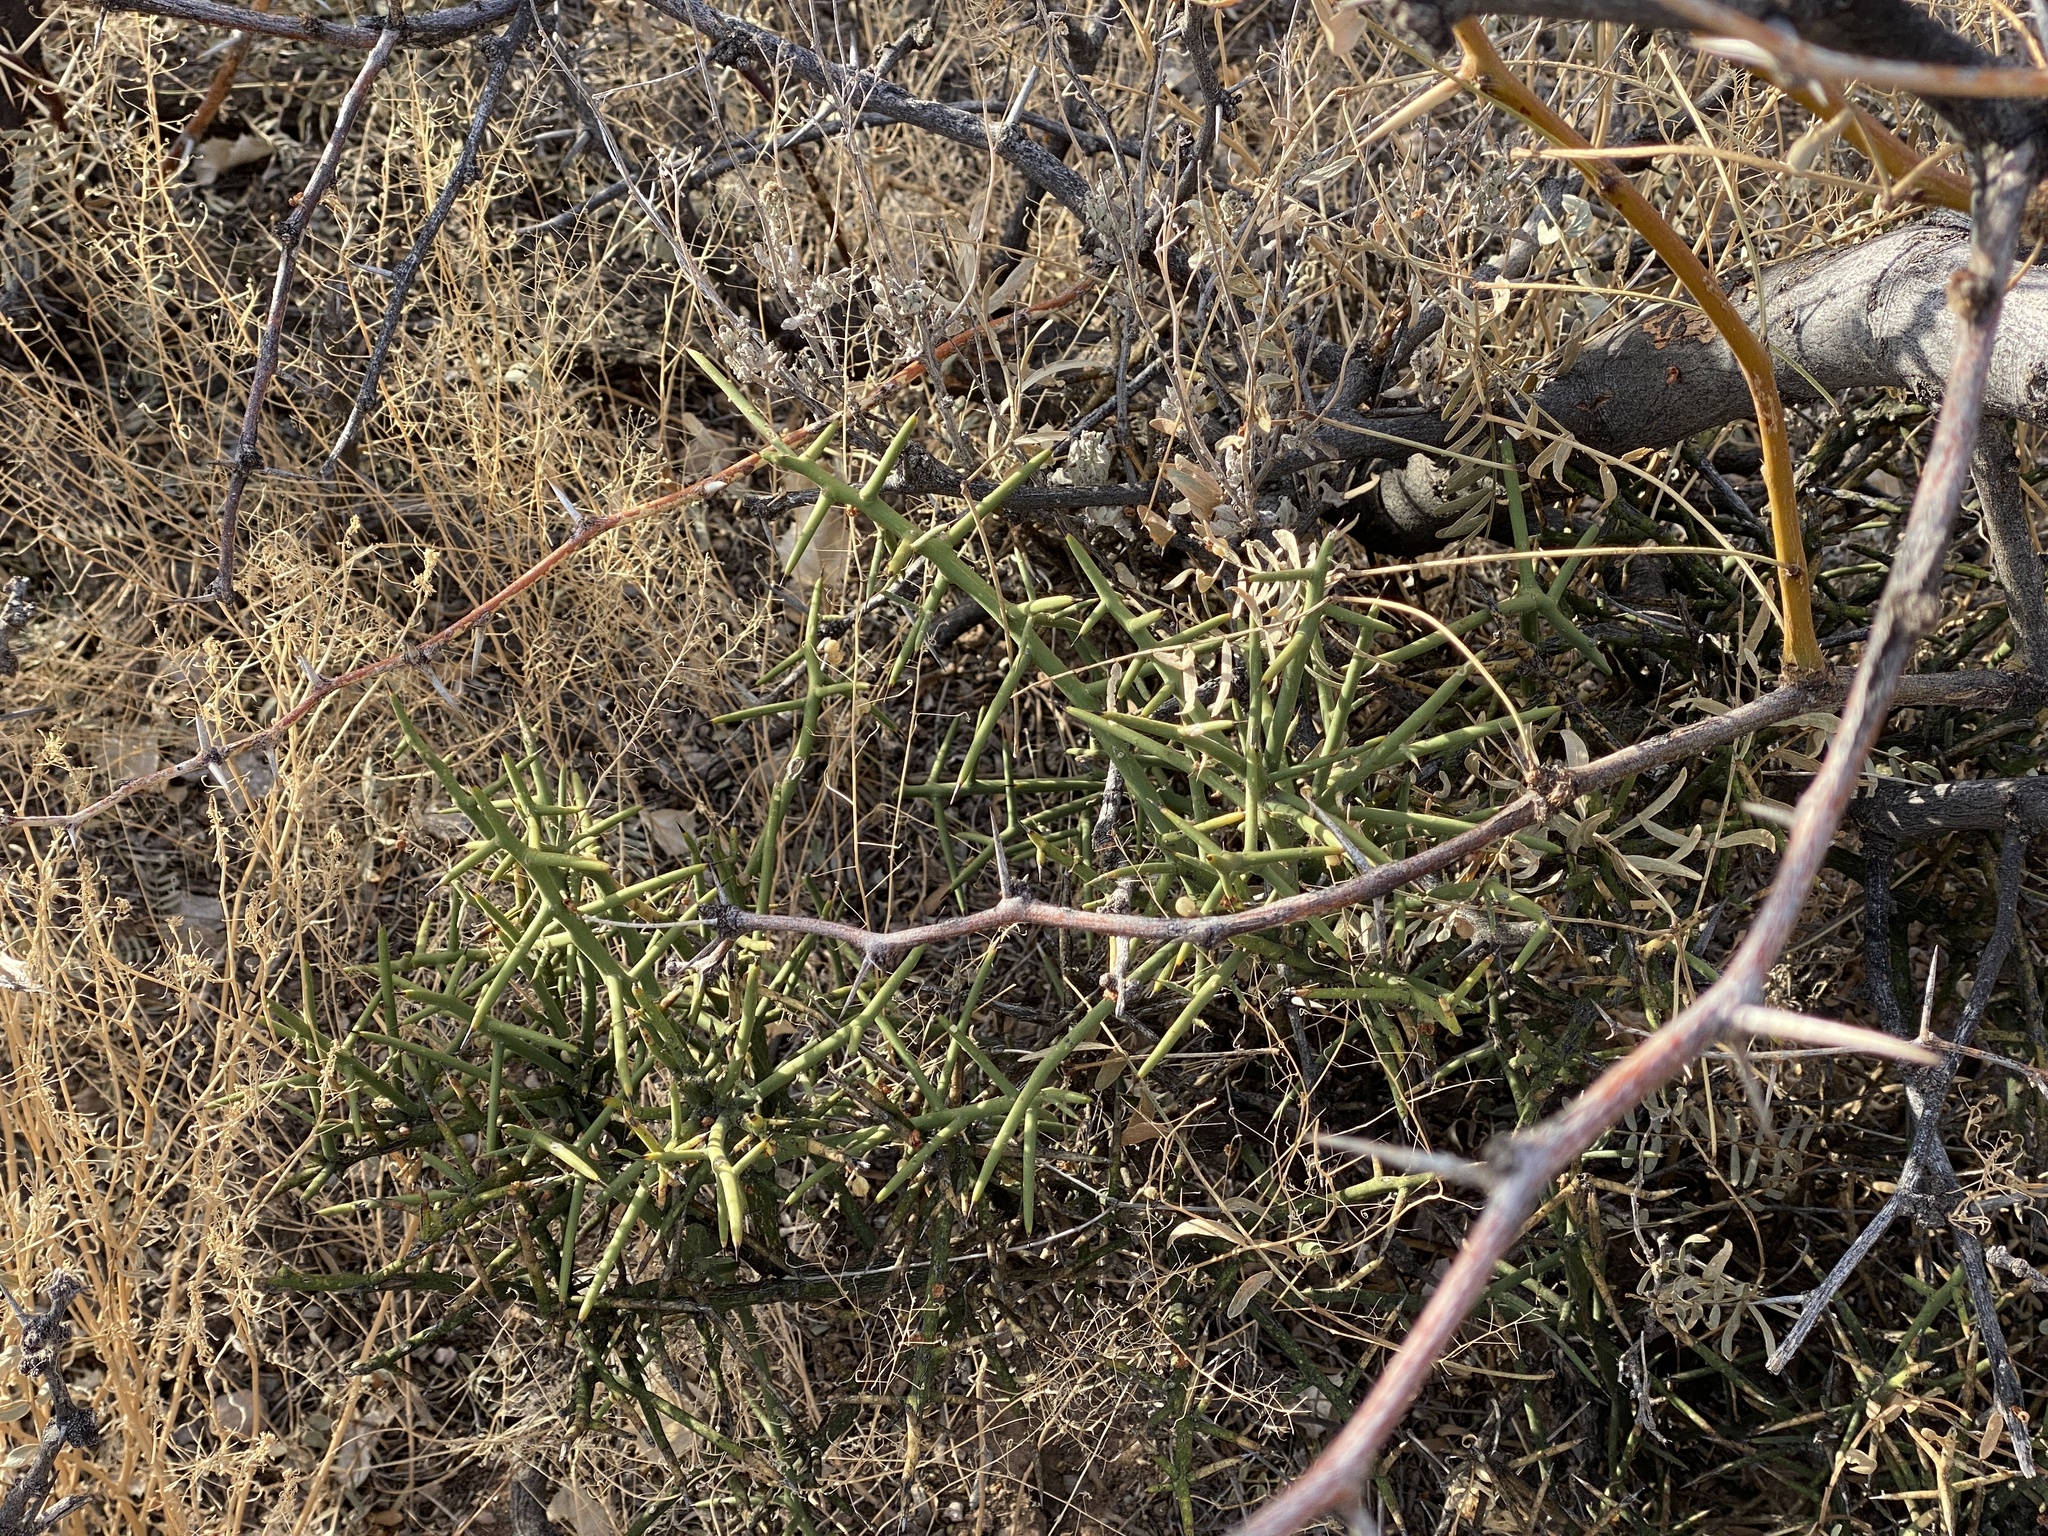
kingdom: Plantae
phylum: Tracheophyta
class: Magnoliopsida
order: Brassicales
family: Koeberliniaceae
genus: Koeberlinia
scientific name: Koeberlinia spinosa
